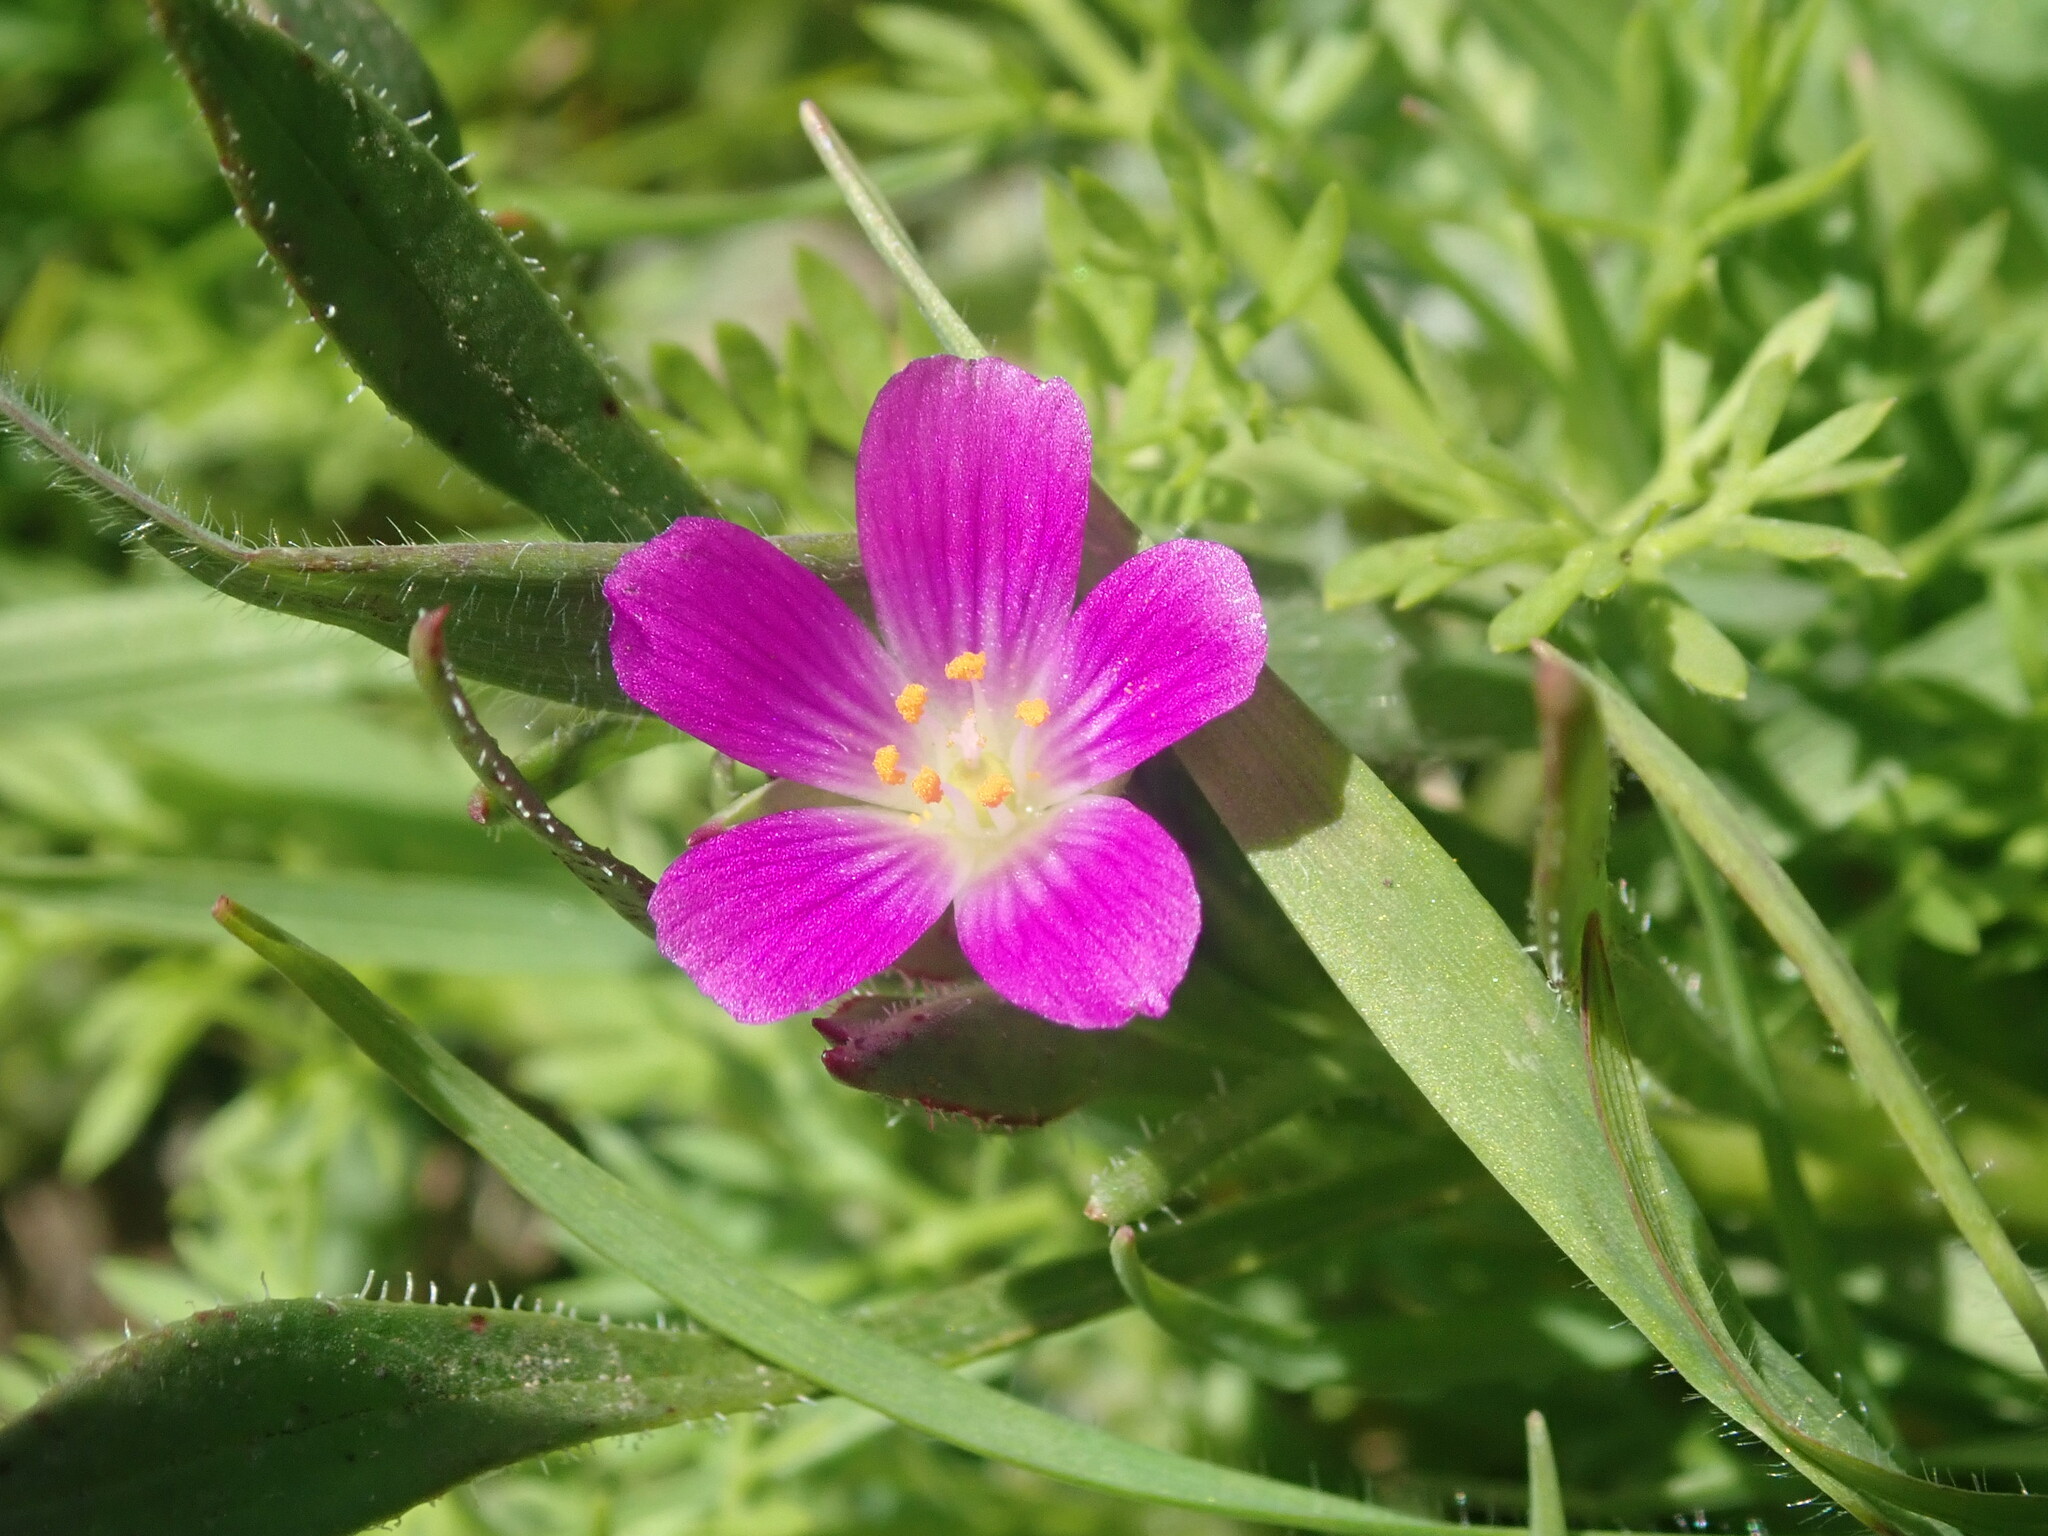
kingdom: Plantae
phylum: Tracheophyta
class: Magnoliopsida
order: Caryophyllales
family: Montiaceae
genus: Calandrinia
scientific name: Calandrinia menziesii
